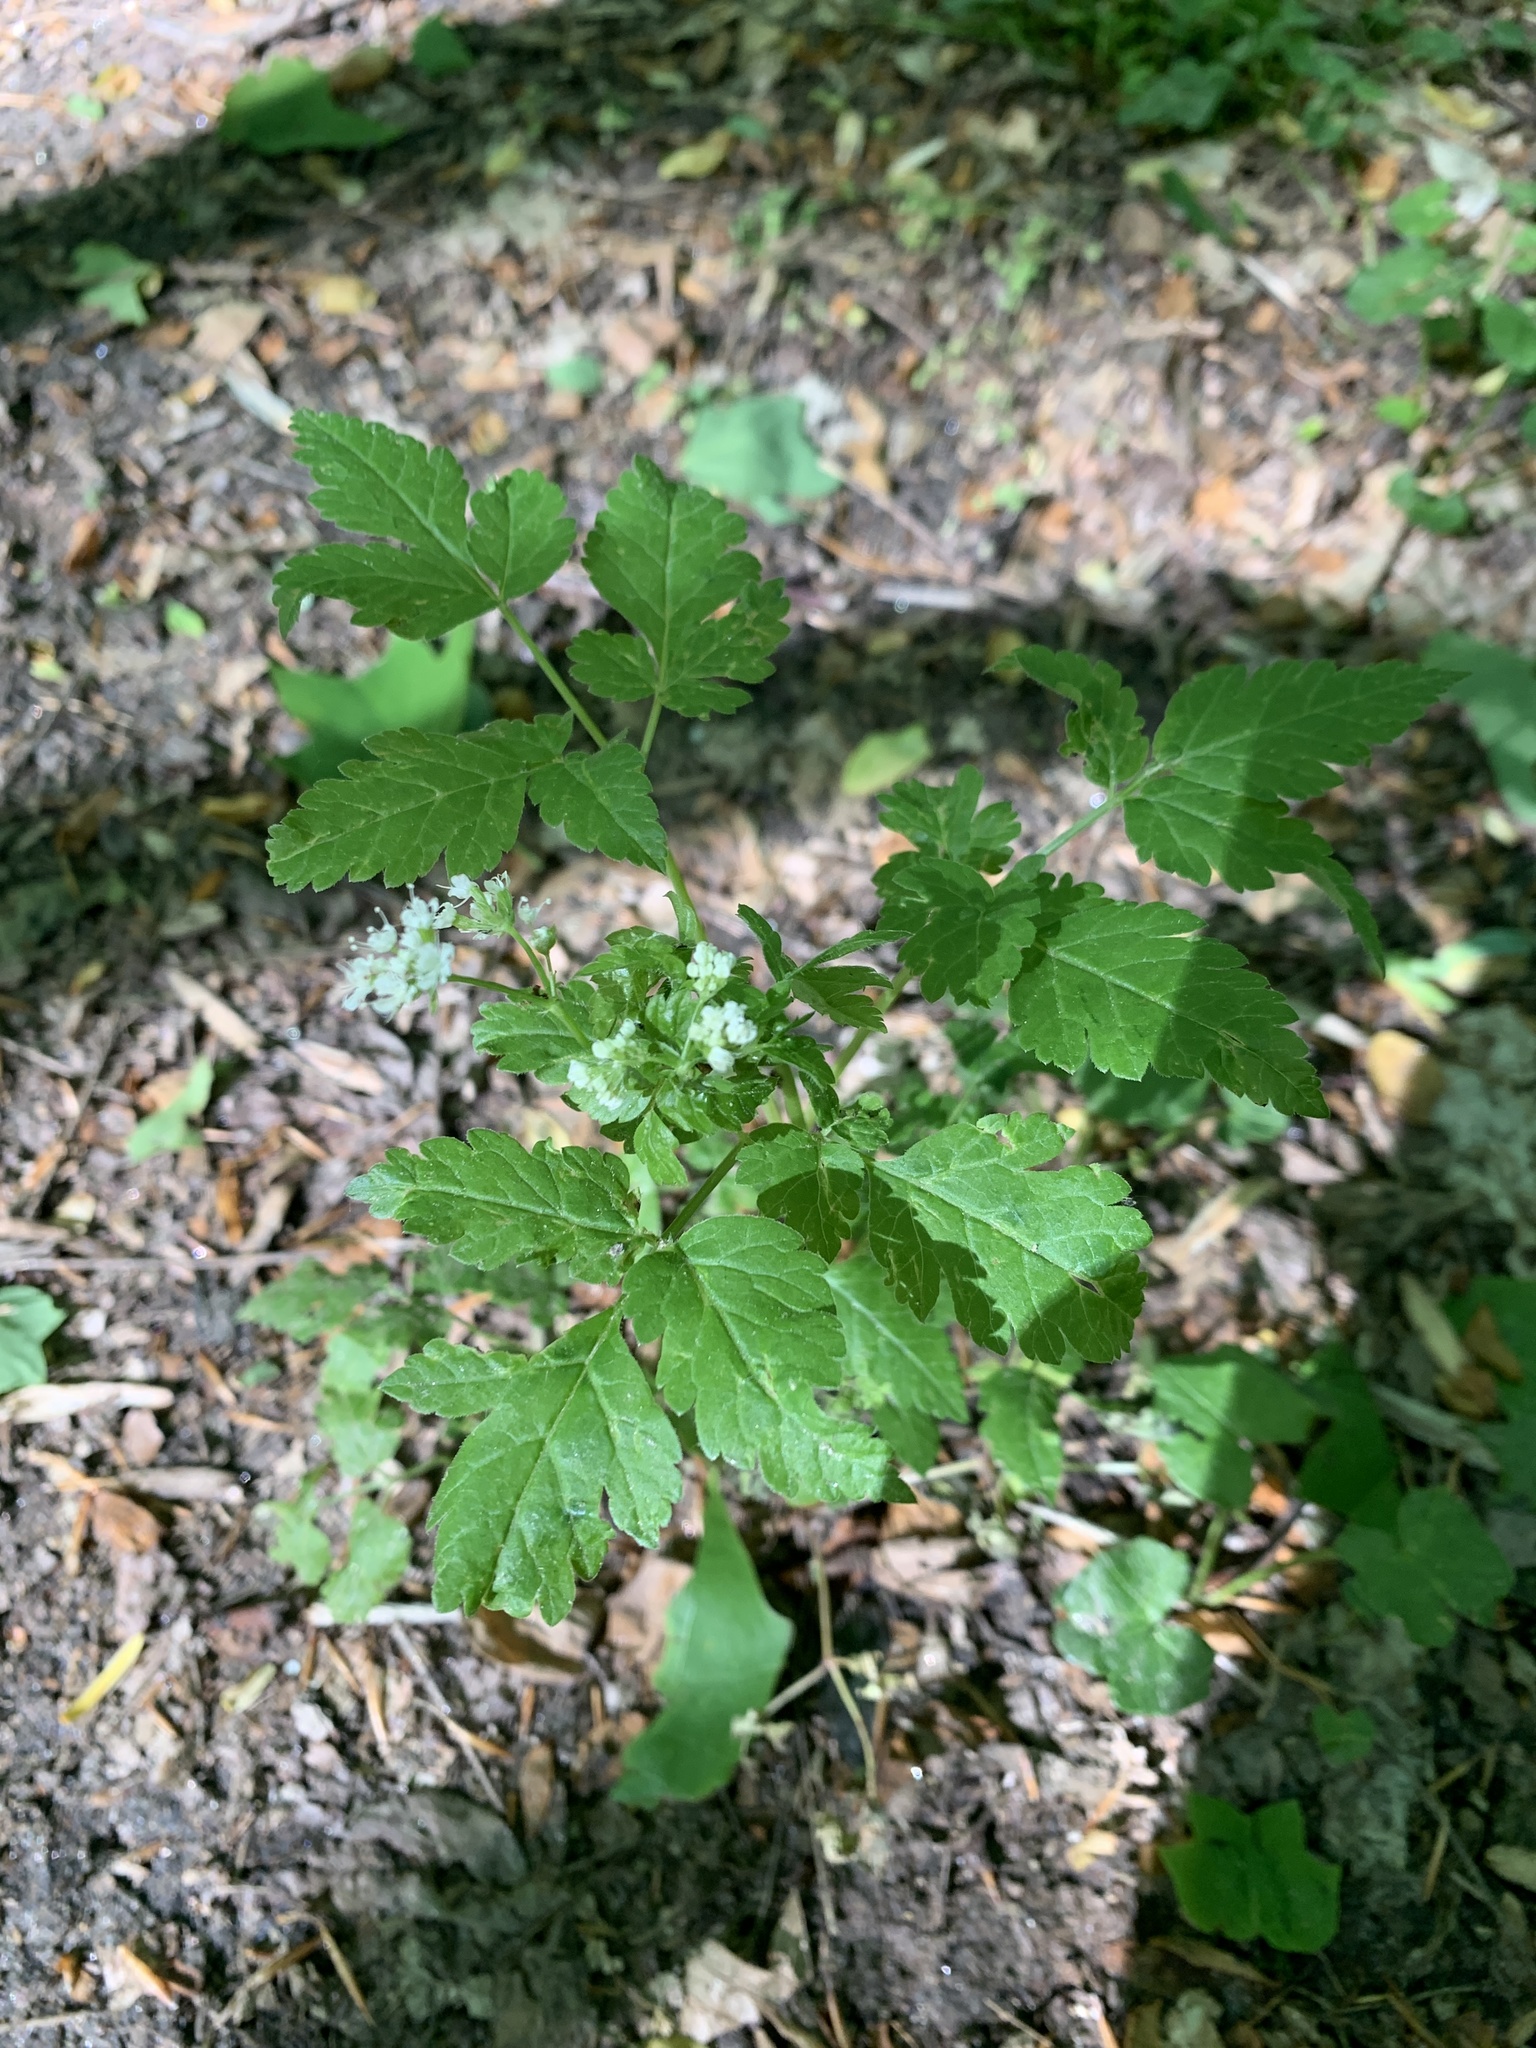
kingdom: Plantae
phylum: Tracheophyta
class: Magnoliopsida
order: Apiales
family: Apiaceae
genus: Osmorhiza
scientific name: Osmorhiza longistylis
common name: Smooth sweet cicely
